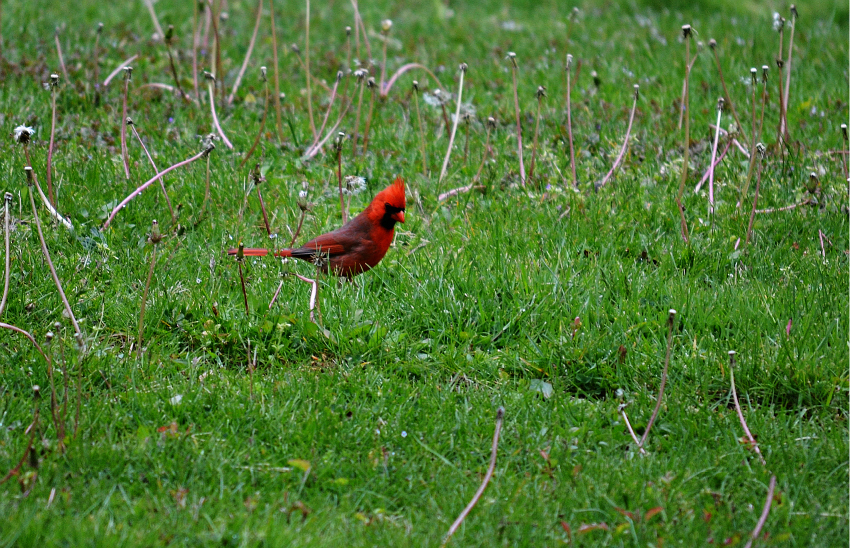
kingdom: Animalia
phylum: Chordata
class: Aves
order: Passeriformes
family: Cardinalidae
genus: Cardinalis
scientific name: Cardinalis cardinalis
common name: Northern cardinal
